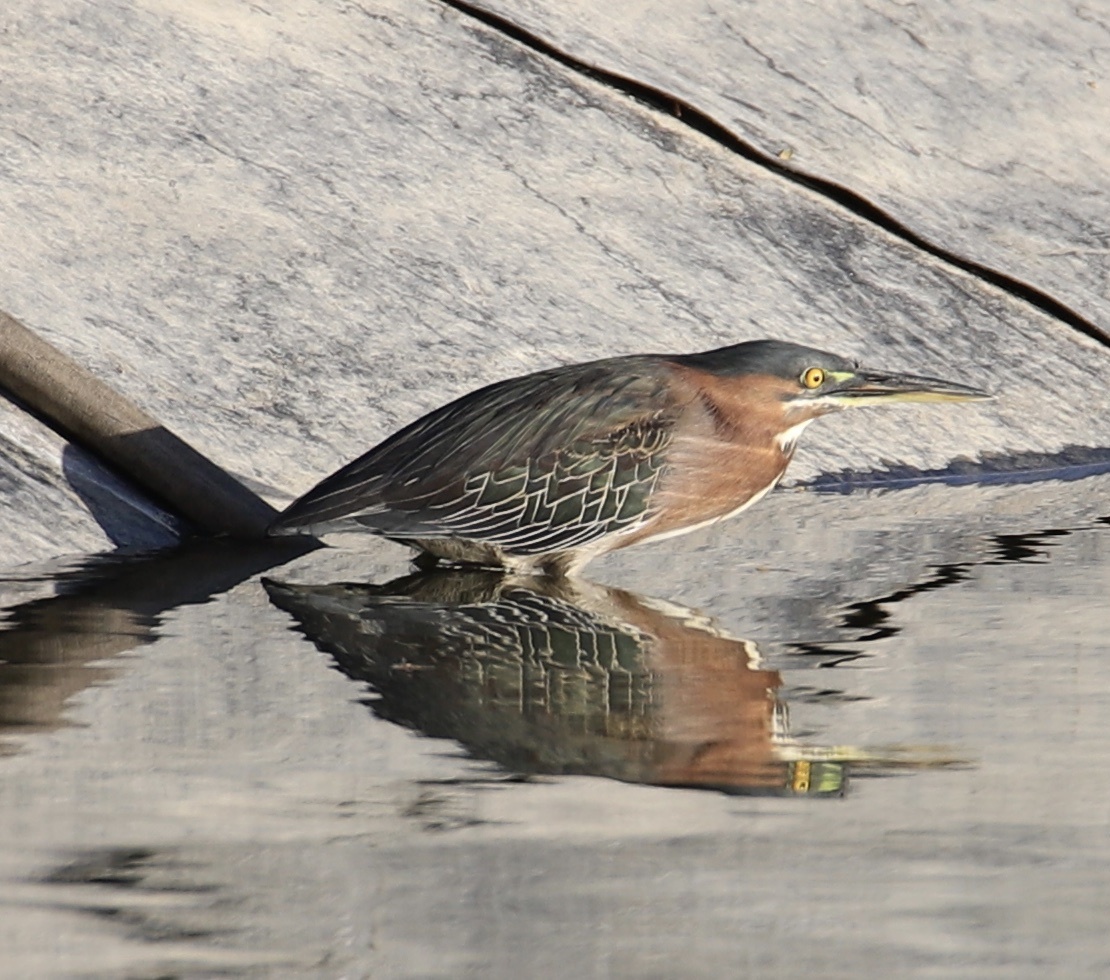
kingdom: Animalia
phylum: Chordata
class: Aves
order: Pelecaniformes
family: Ardeidae
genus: Butorides
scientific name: Butorides virescens
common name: Green heron
